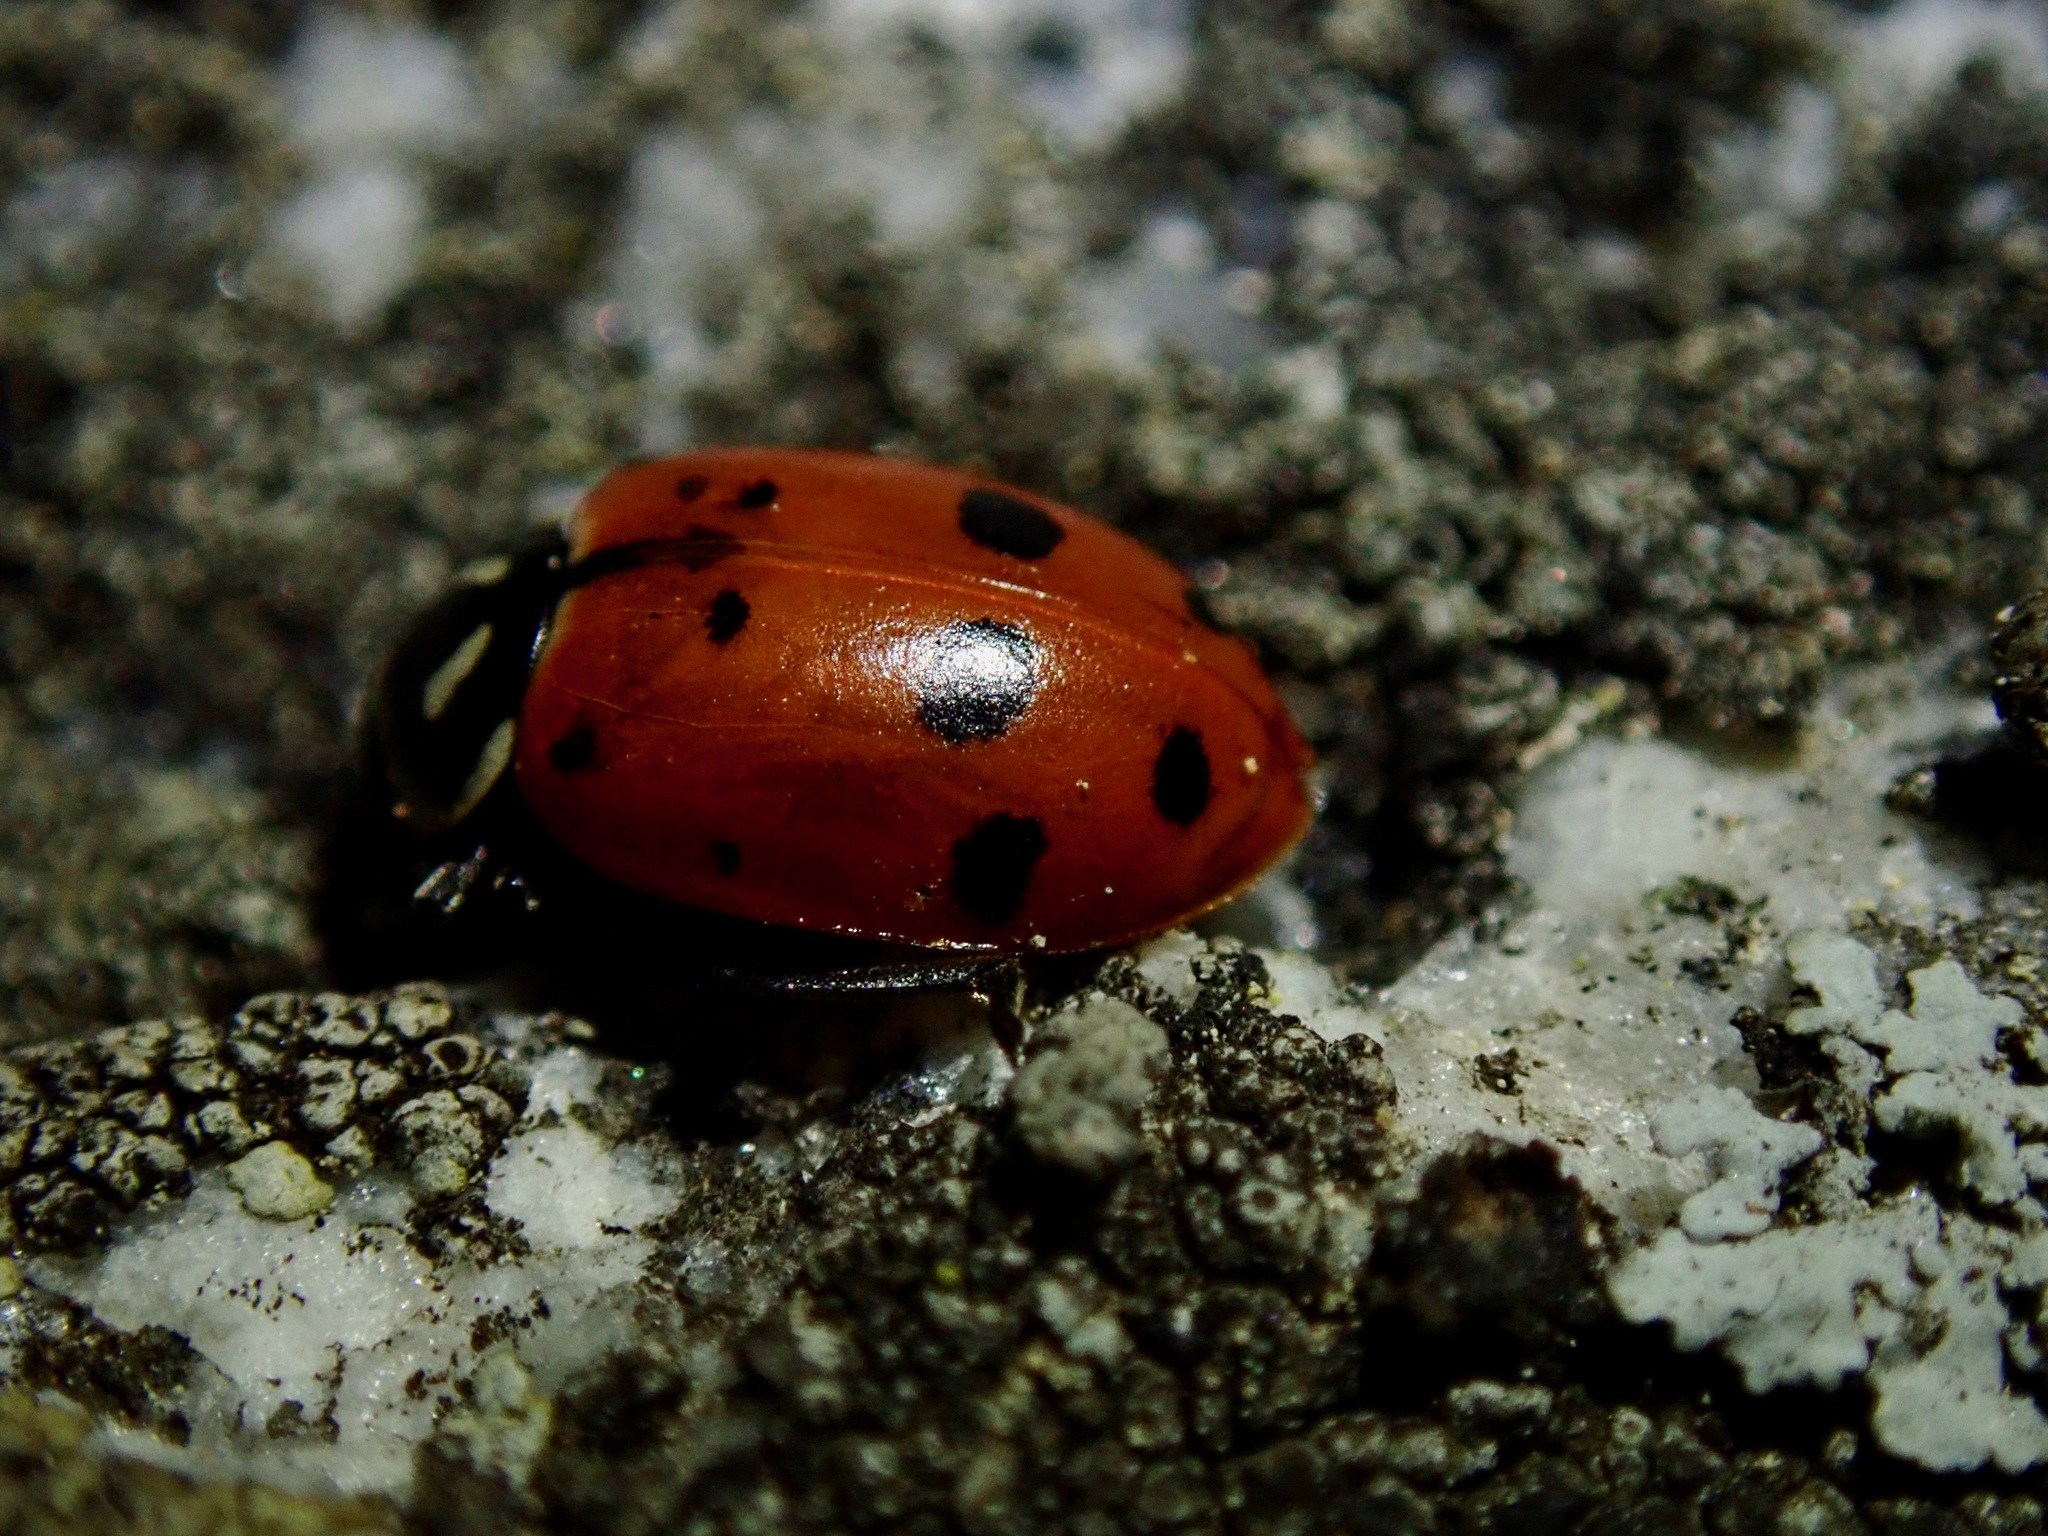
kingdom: Animalia
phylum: Arthropoda
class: Insecta
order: Coleoptera
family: Coccinellidae
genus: Hippodamia
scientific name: Hippodamia convergens
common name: Convergent lady beetle
